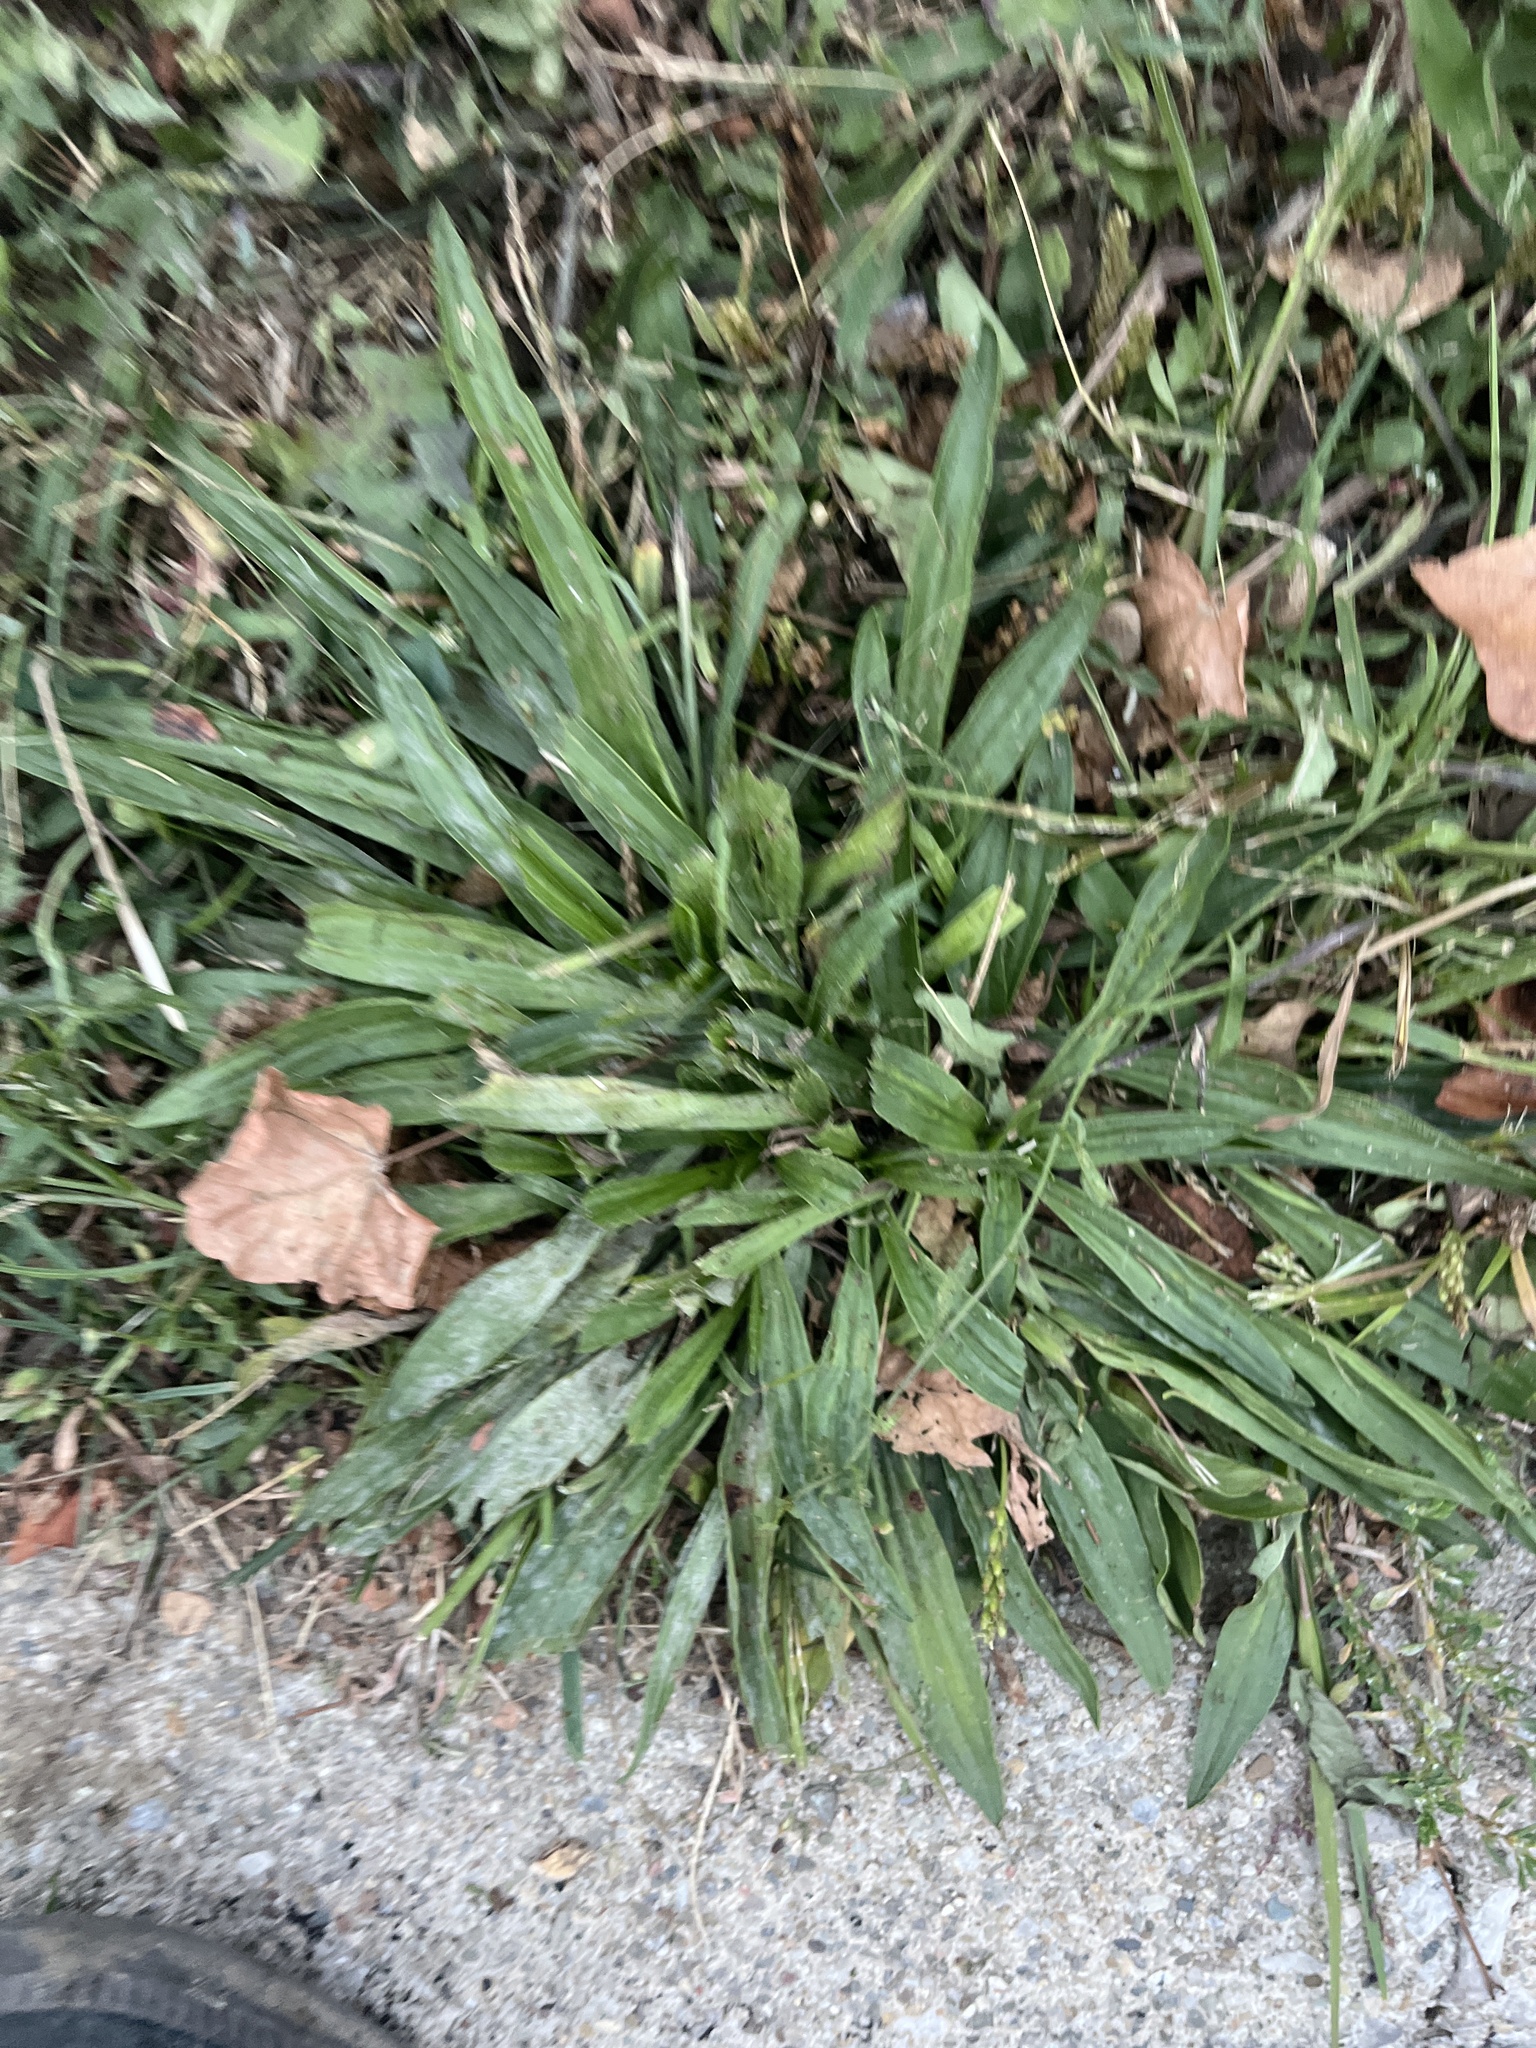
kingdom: Plantae
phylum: Tracheophyta
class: Magnoliopsida
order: Lamiales
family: Plantaginaceae
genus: Plantago
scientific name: Plantago lanceolata
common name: Ribwort plantain
